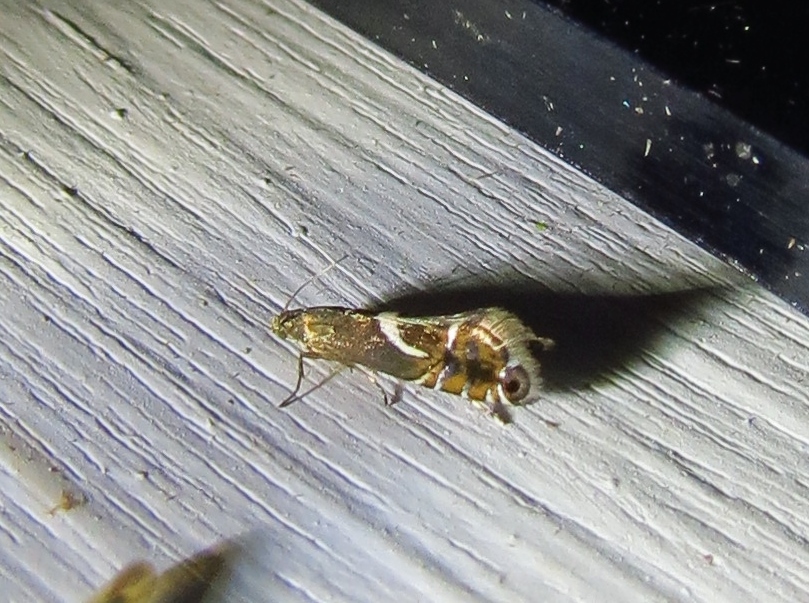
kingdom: Animalia
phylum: Arthropoda
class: Insecta
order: Lepidoptera
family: Glyphipterigidae
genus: Glyphipterix
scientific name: Glyphipterix Diploschizia impigritella
